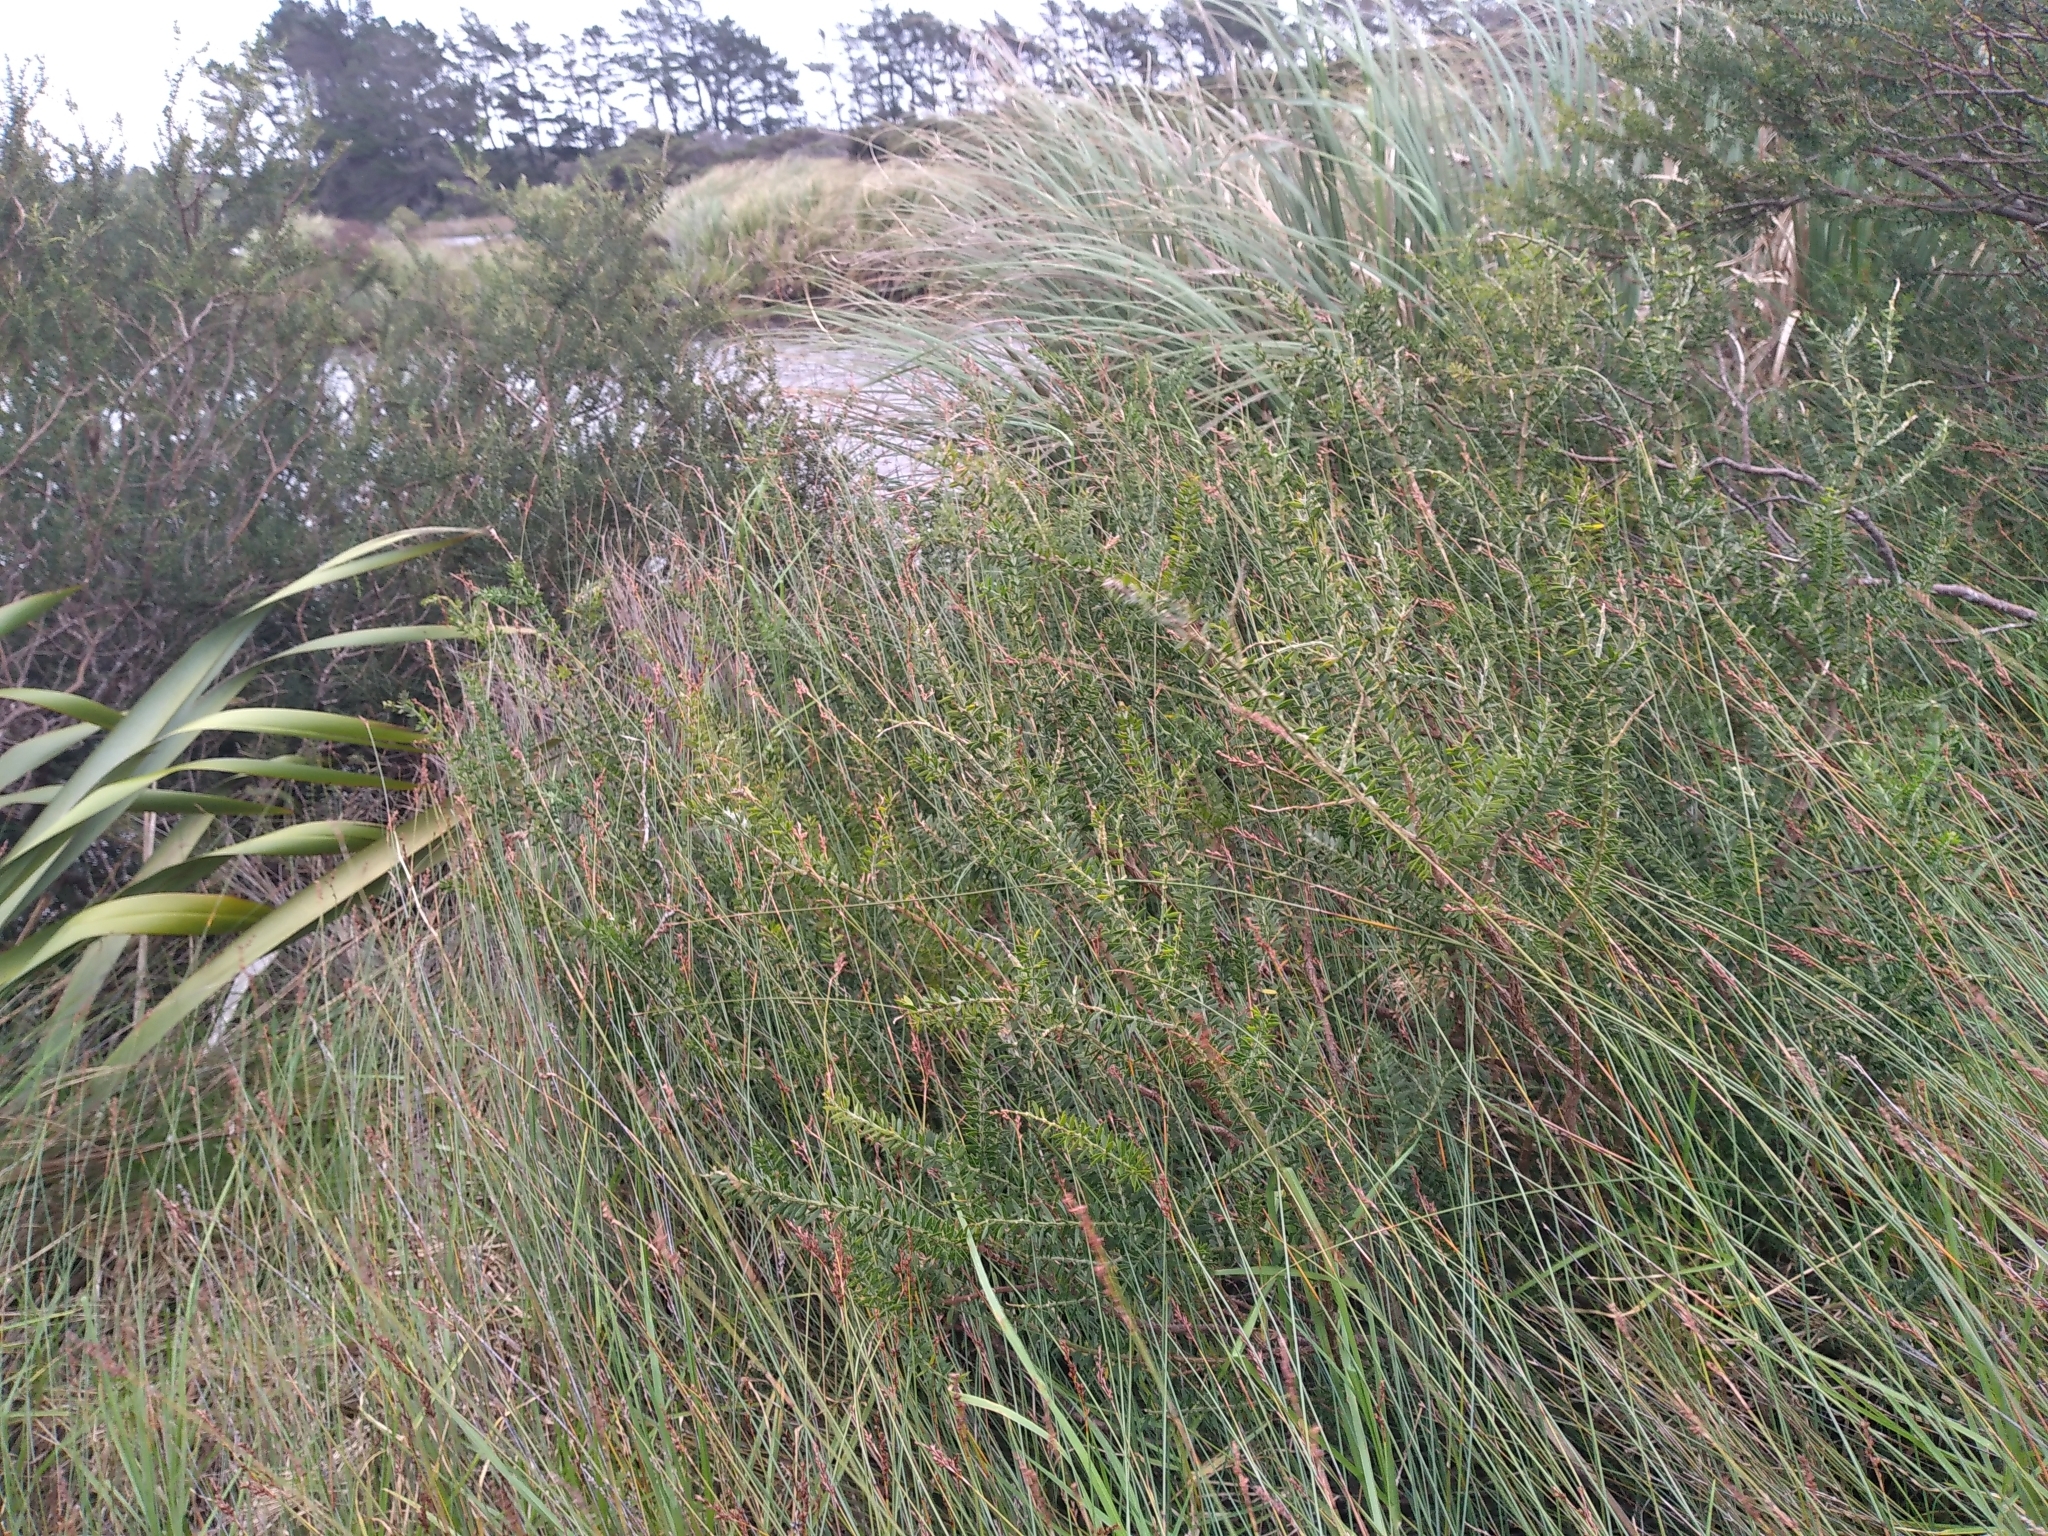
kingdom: Plantae
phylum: Tracheophyta
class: Magnoliopsida
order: Fabales
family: Fabaceae
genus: Acacia
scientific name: Acacia verticillata
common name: Prickly moses
